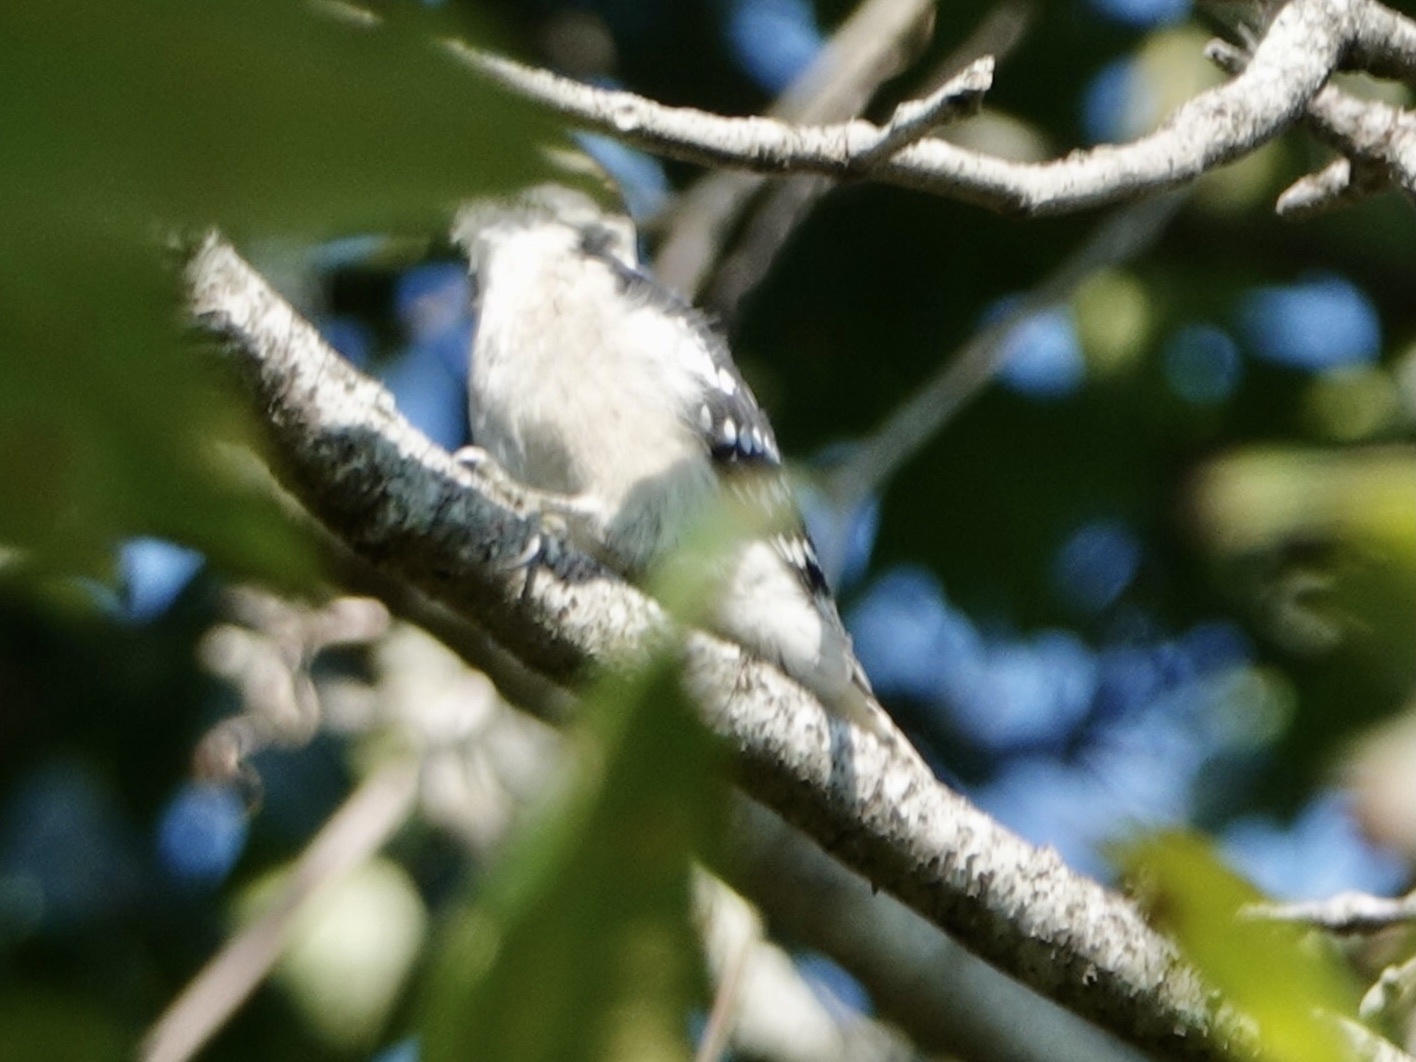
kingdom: Animalia
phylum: Chordata
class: Aves
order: Piciformes
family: Picidae
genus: Dryobates
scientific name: Dryobates pubescens
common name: Downy woodpecker
